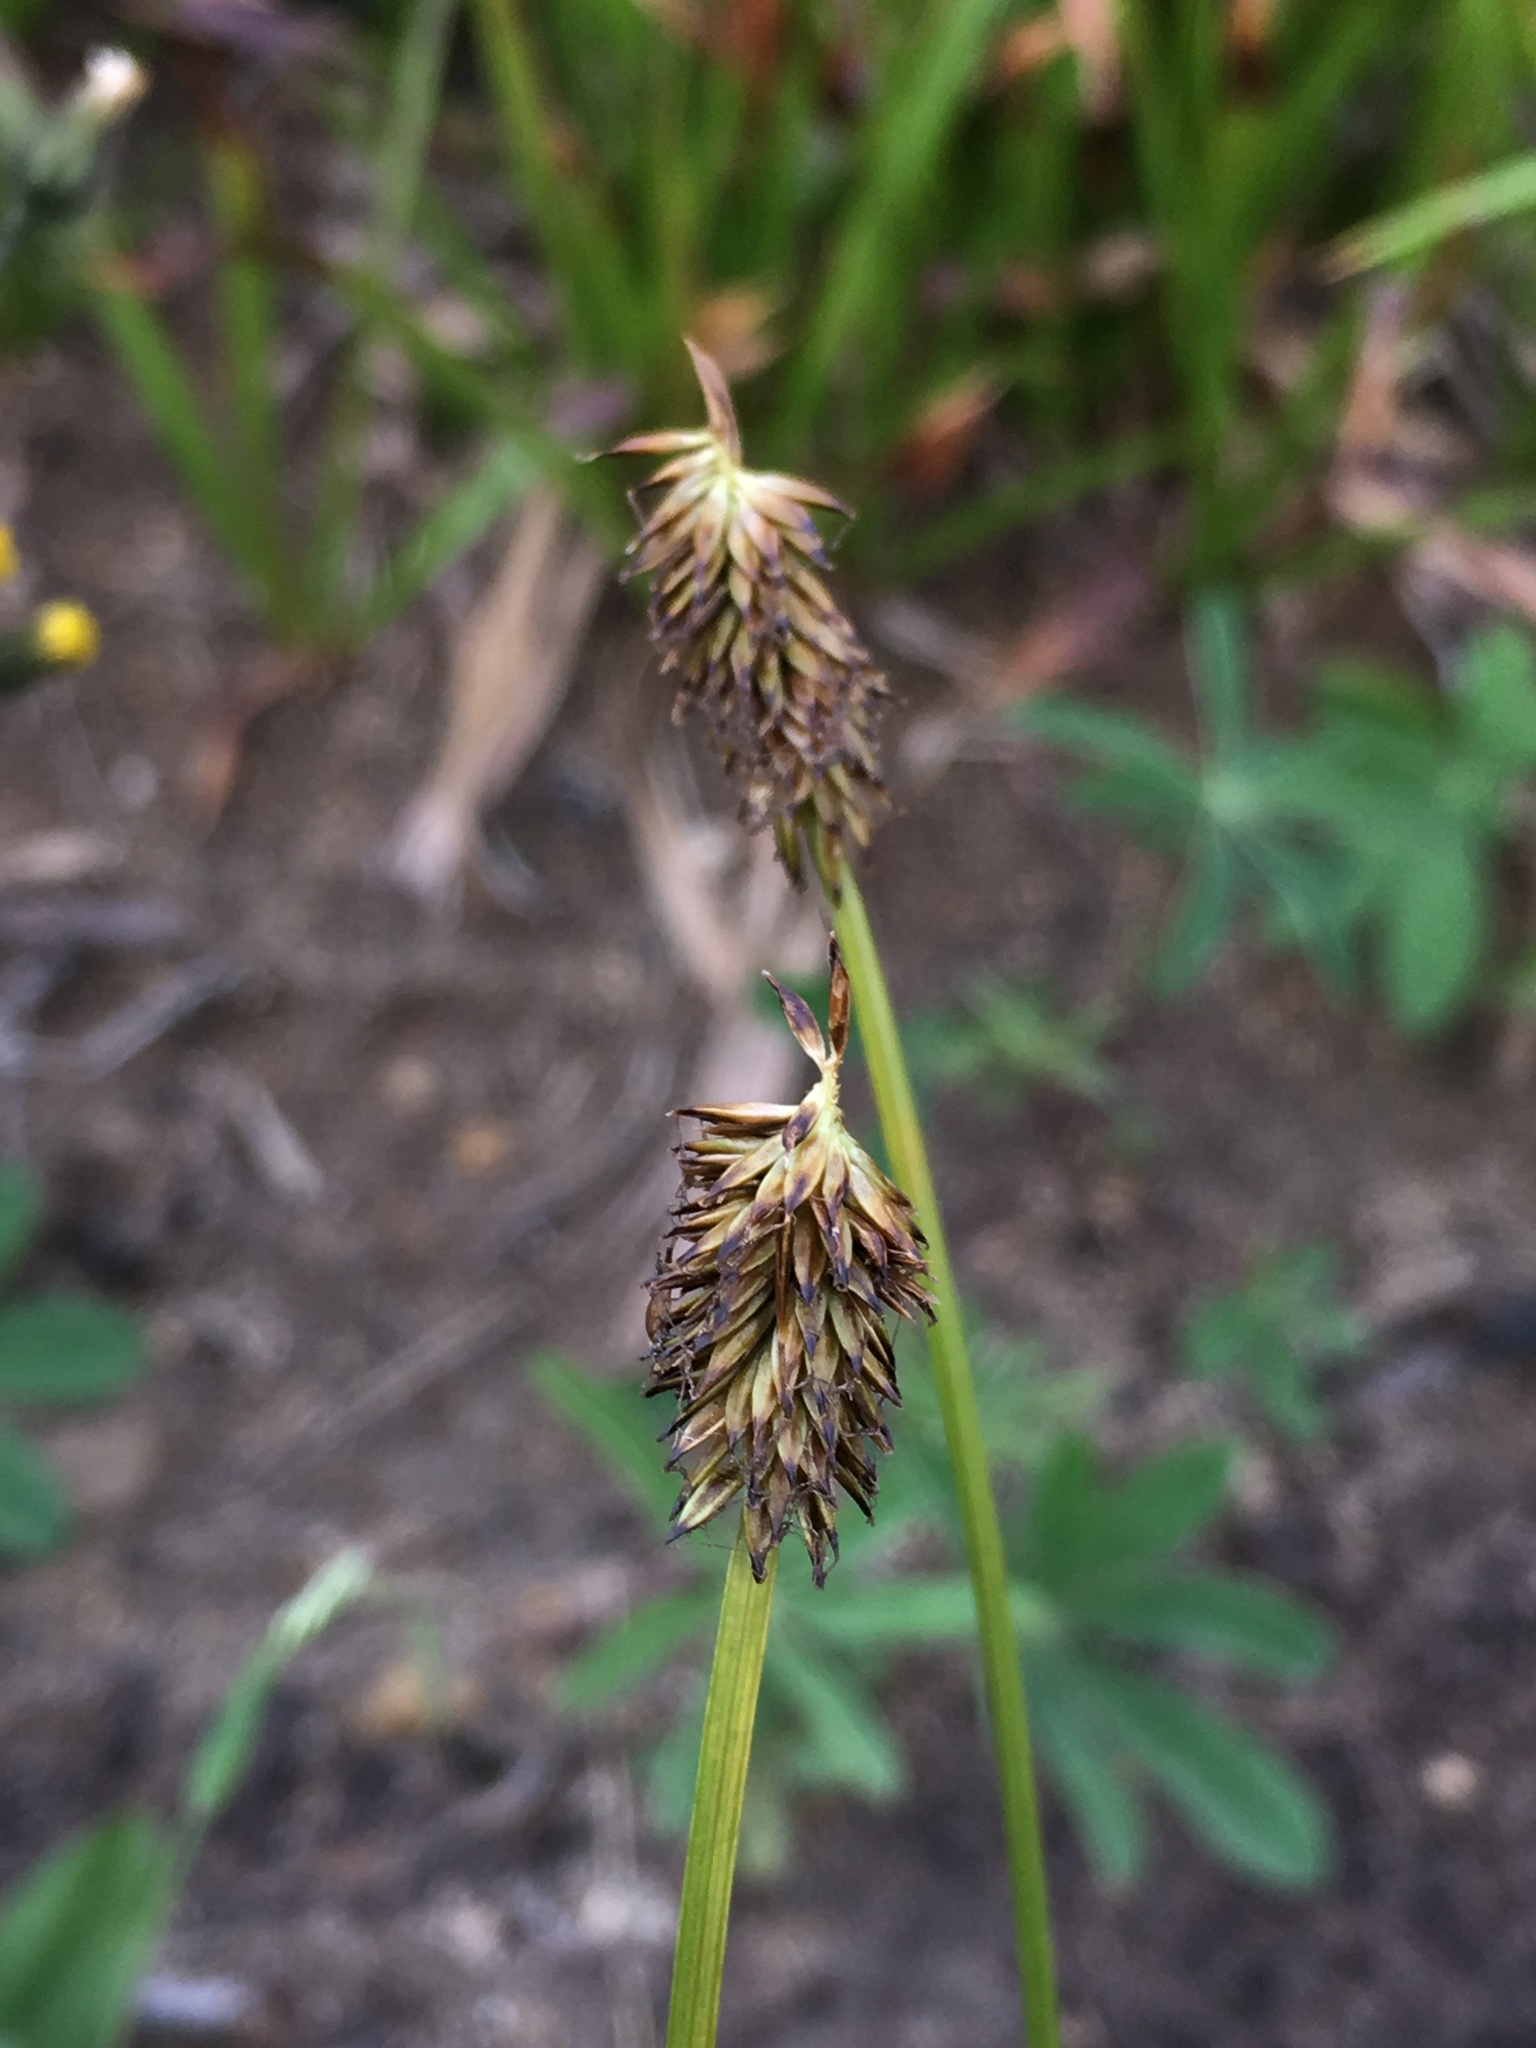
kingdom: Plantae
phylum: Tracheophyta
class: Liliopsida
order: Poales
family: Cyperaceae
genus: Carex
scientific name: Carex nigricans
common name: Black alpine sedge
